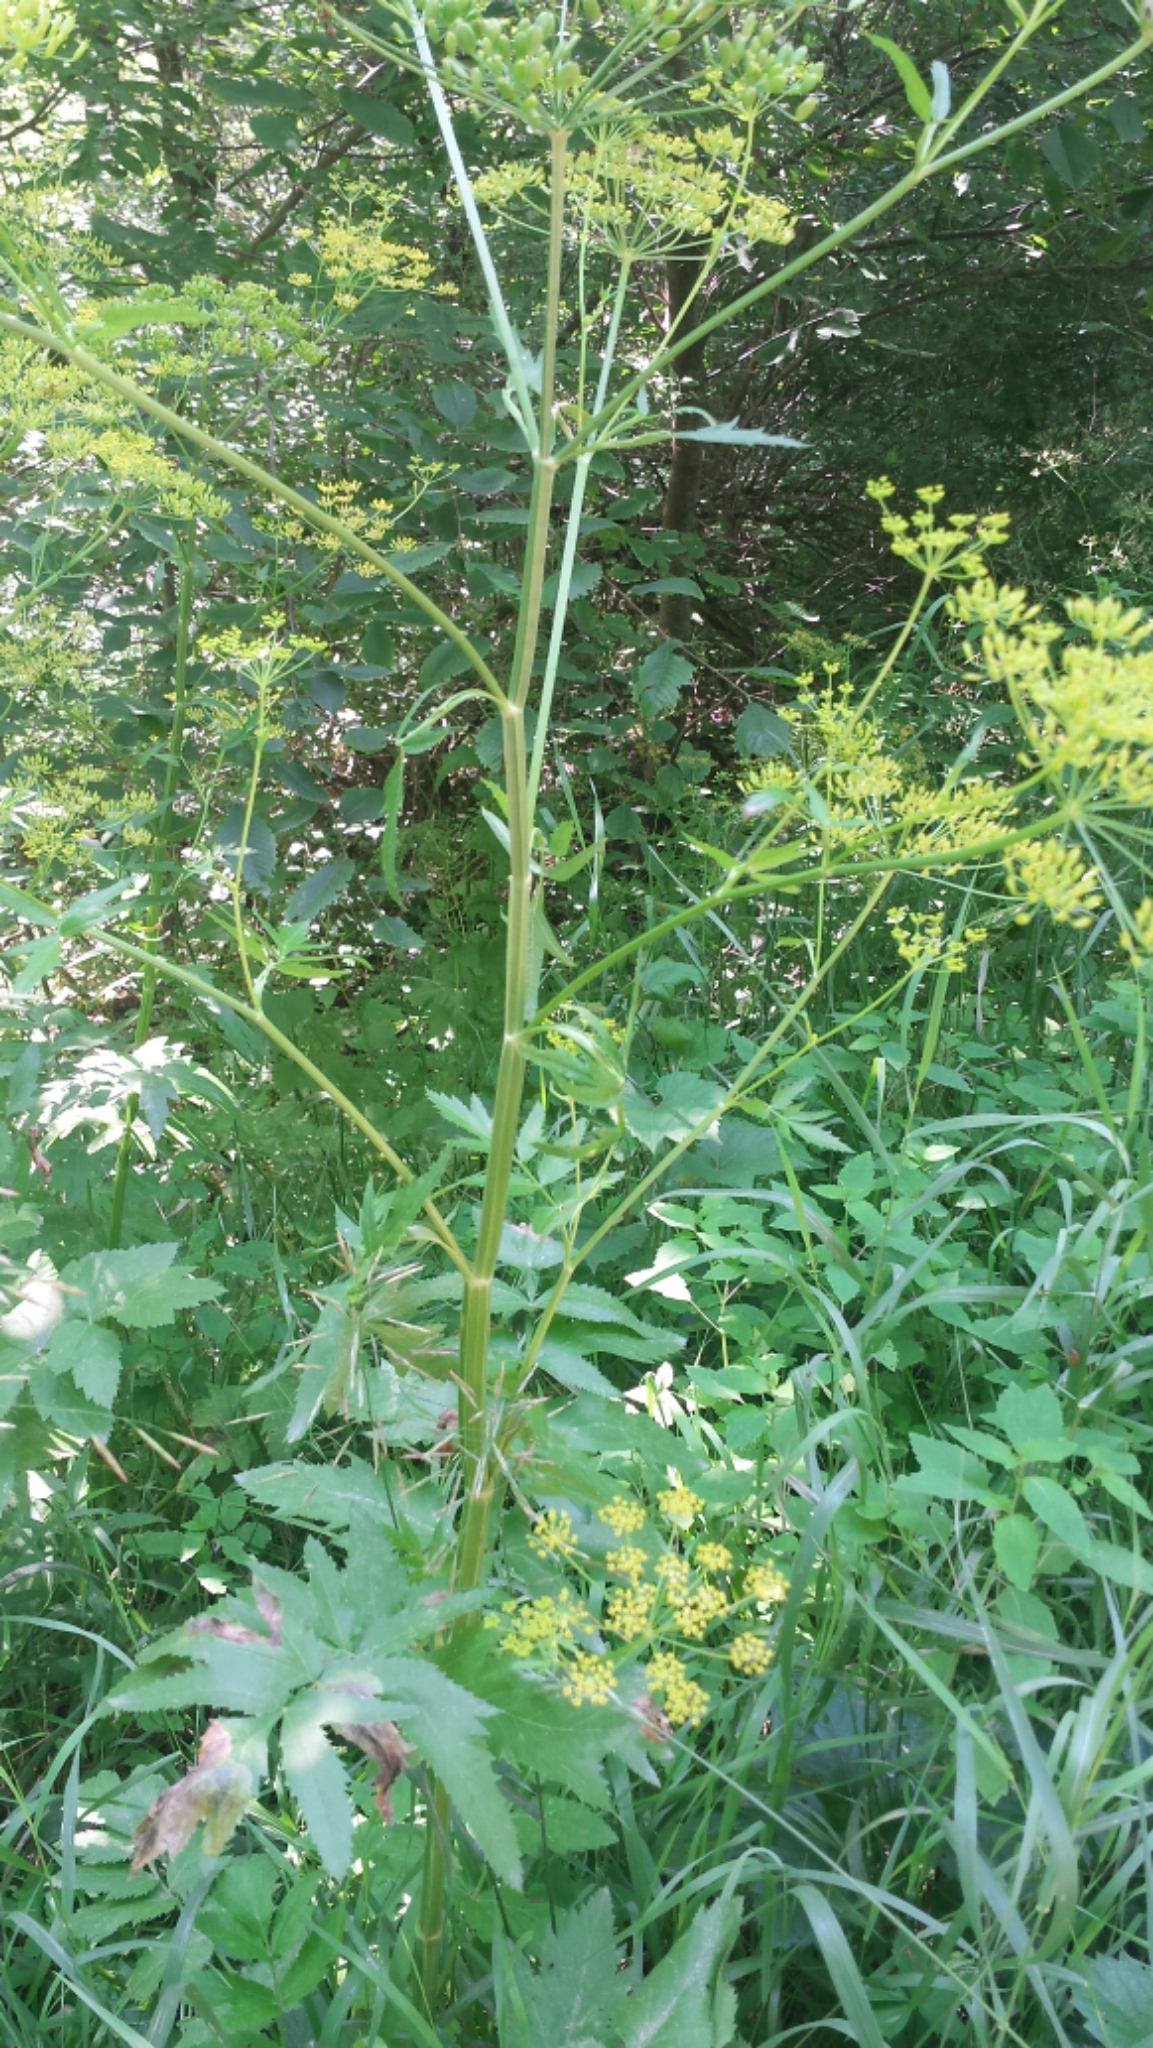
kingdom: Plantae
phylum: Tracheophyta
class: Magnoliopsida
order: Apiales
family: Apiaceae
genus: Pastinaca
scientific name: Pastinaca sativa
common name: Wild parsnip
